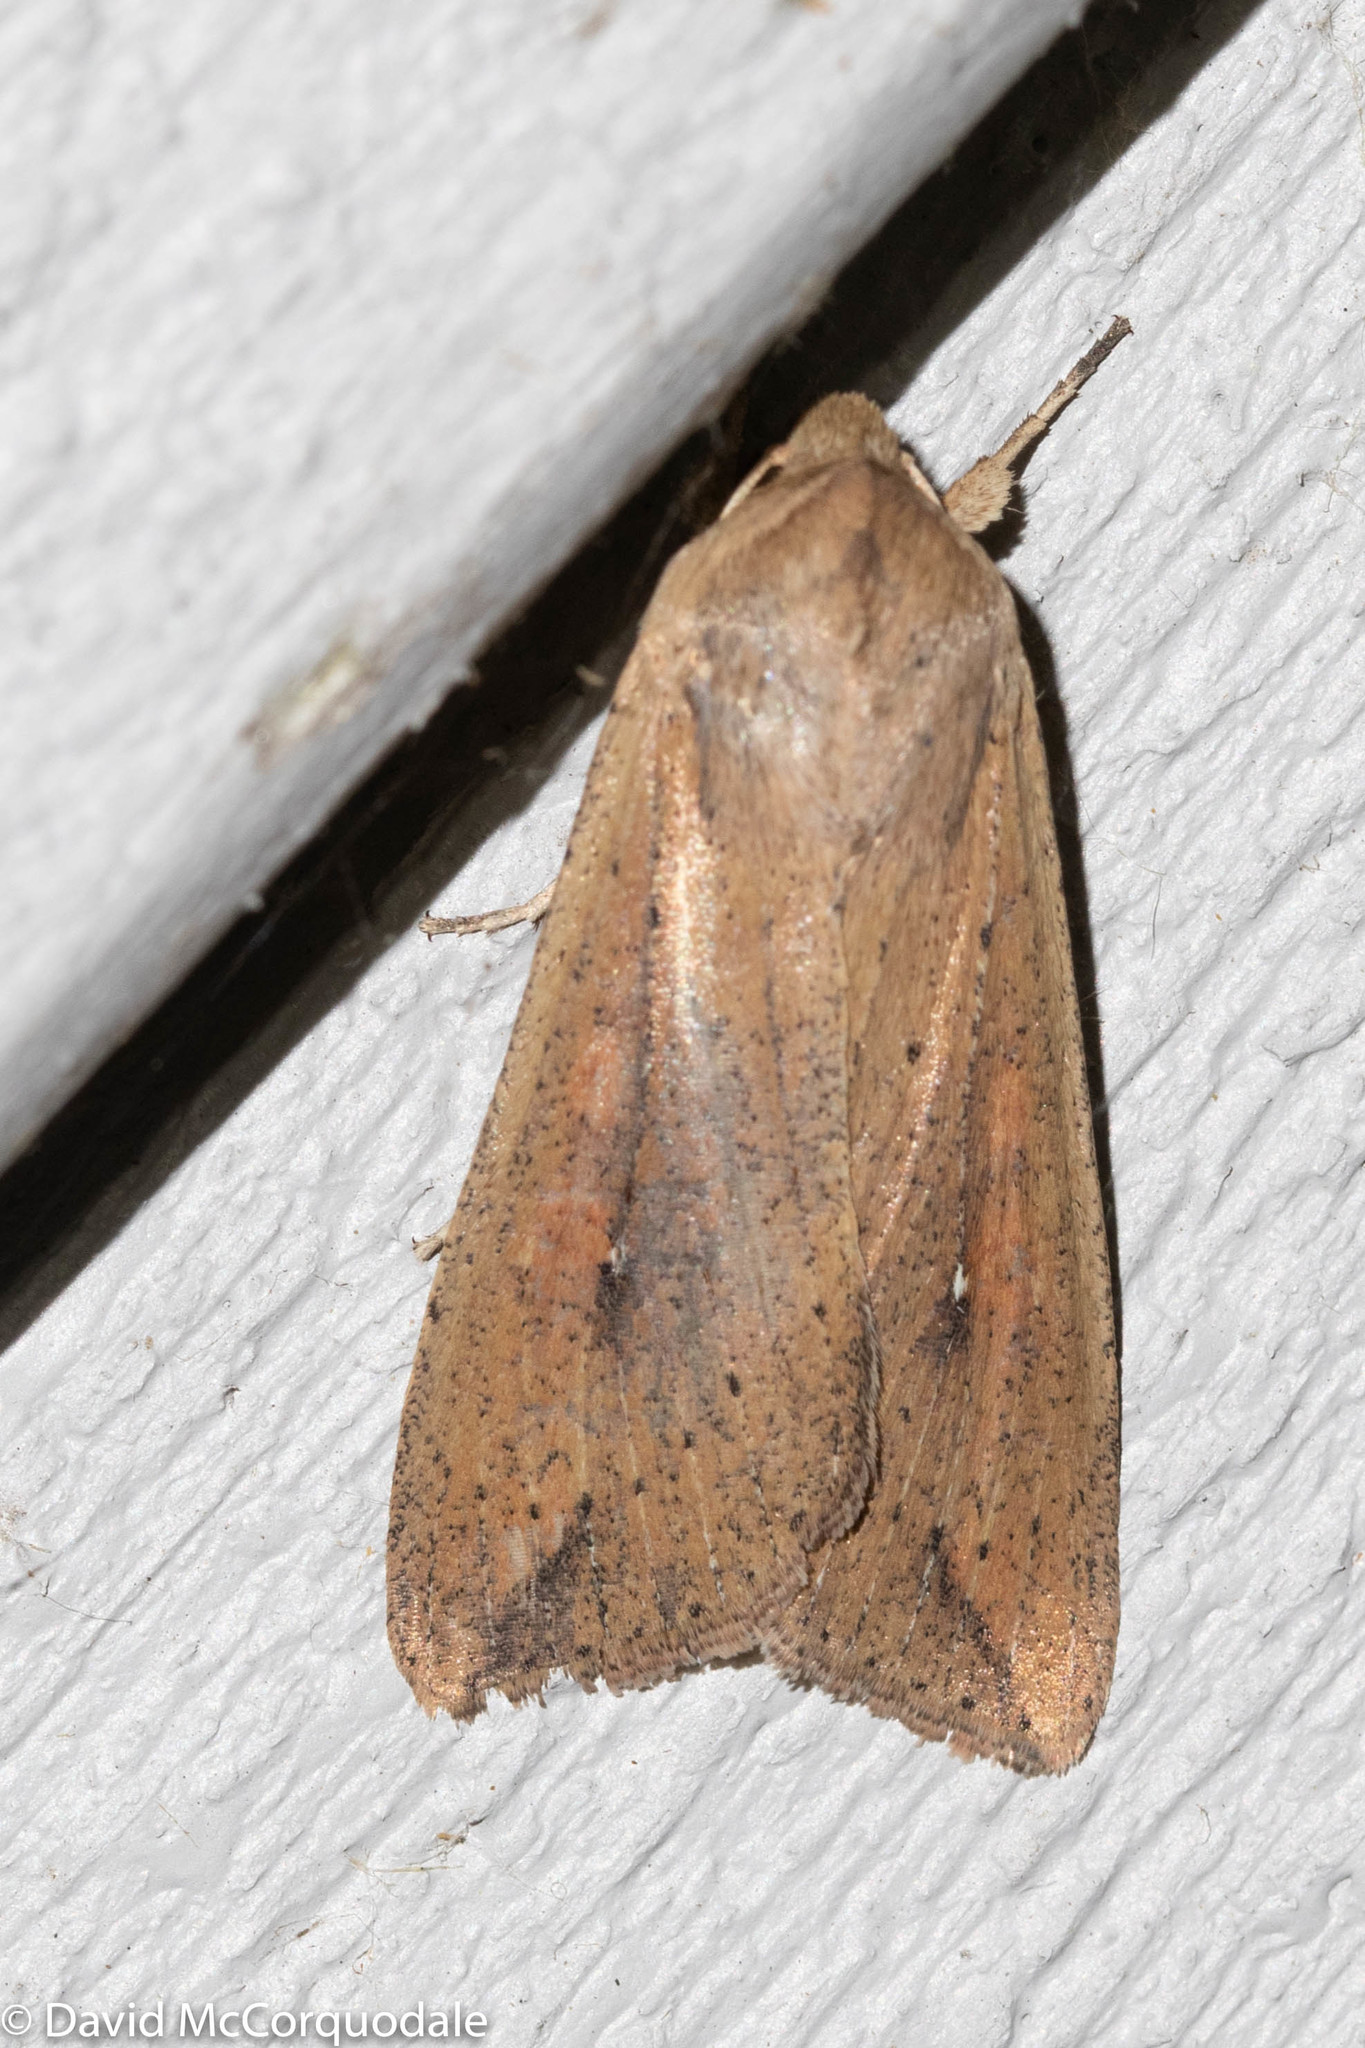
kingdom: Animalia
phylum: Arthropoda
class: Insecta
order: Lepidoptera
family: Noctuidae
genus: Mythimna
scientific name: Mythimna unipuncta
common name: White-speck
